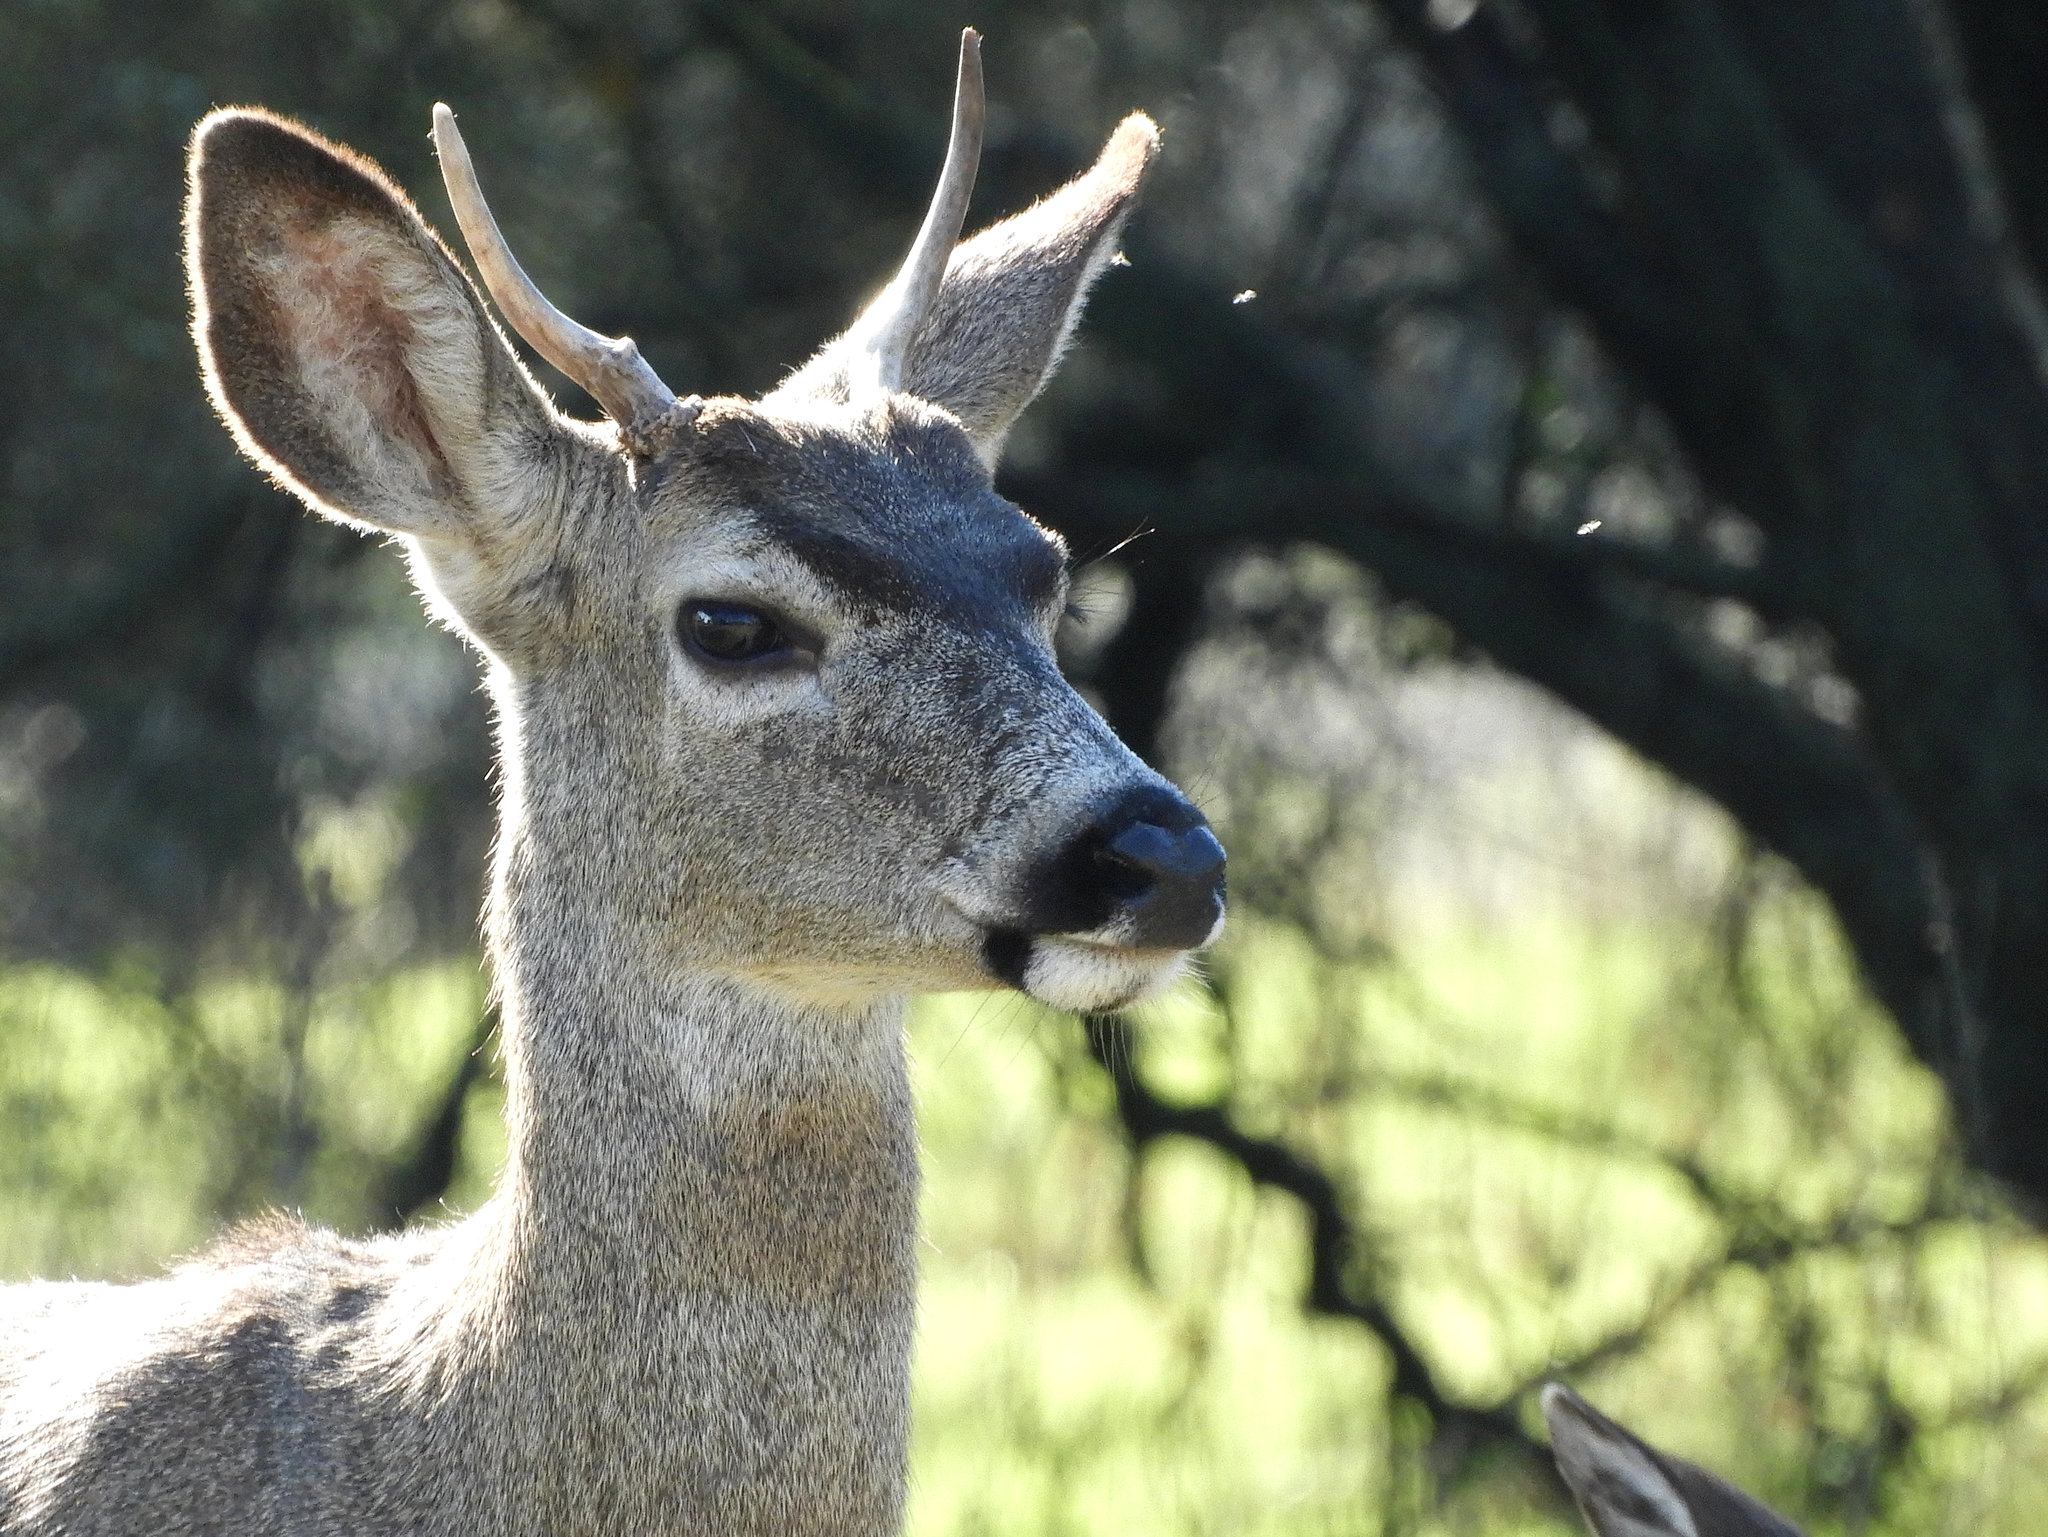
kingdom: Animalia
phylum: Chordata
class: Mammalia
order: Artiodactyla
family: Cervidae
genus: Odocoileus
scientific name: Odocoileus hemionus
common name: Mule deer
